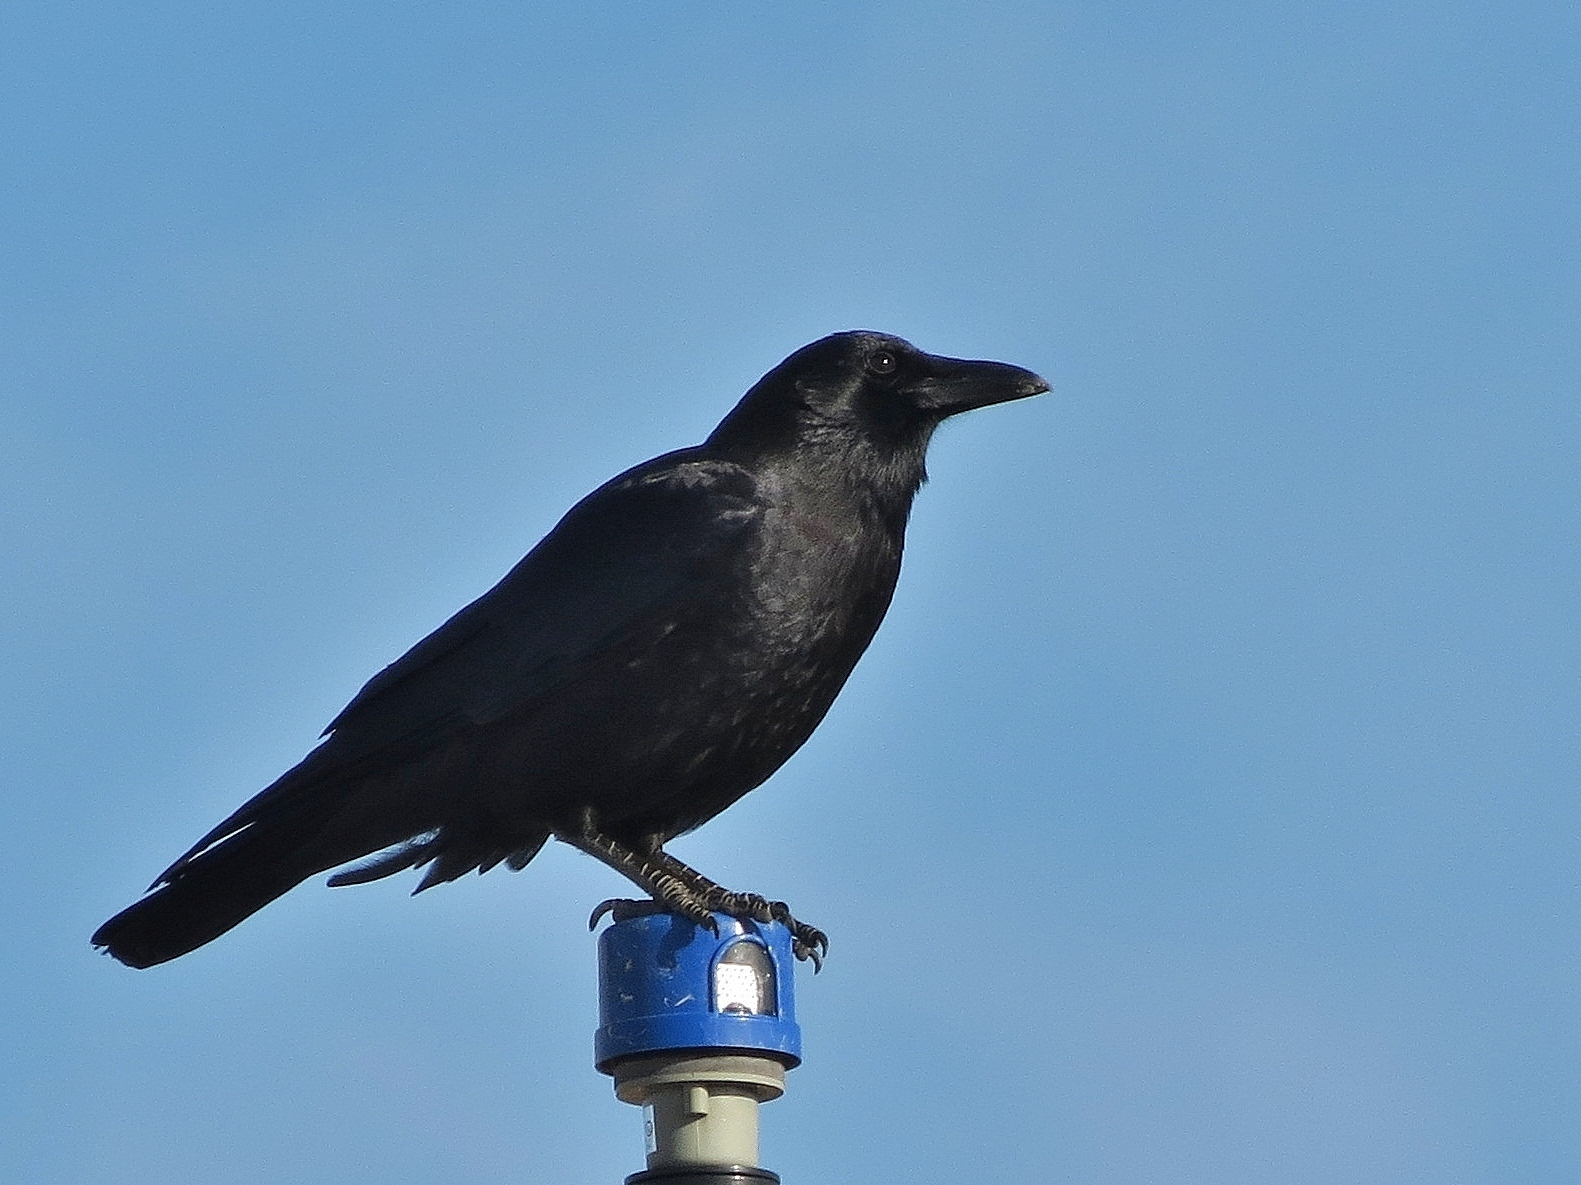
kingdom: Animalia
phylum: Chordata
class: Aves
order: Passeriformes
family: Corvidae
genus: Corvus
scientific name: Corvus brachyrhynchos
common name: American crow
